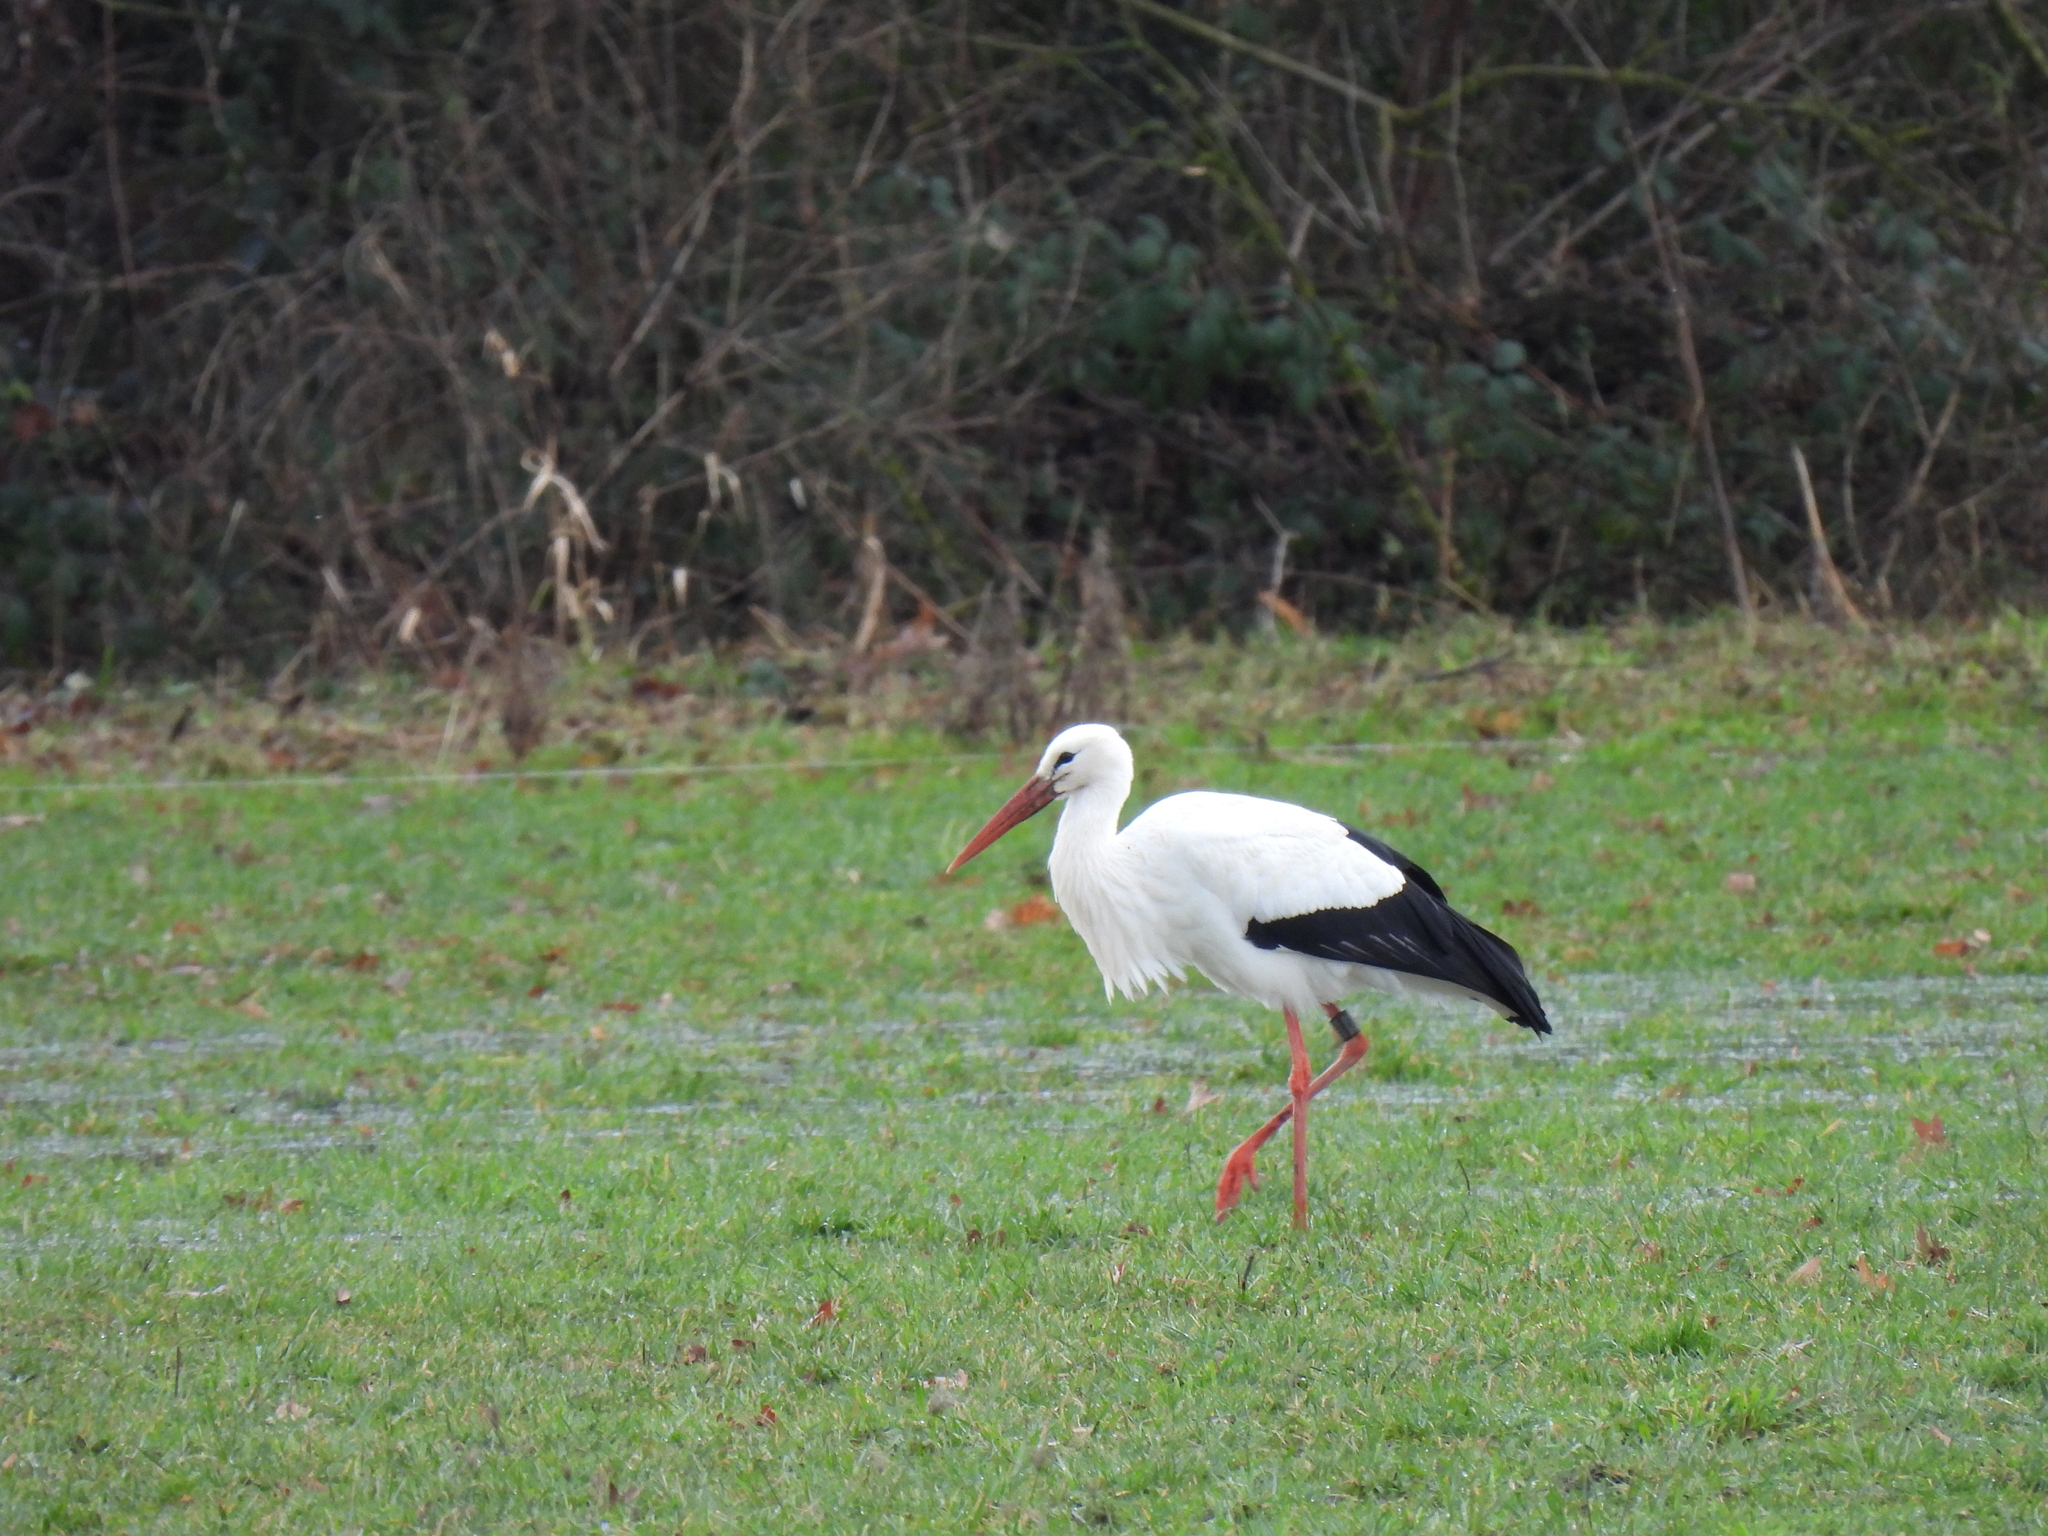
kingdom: Animalia
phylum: Chordata
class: Aves
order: Ciconiiformes
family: Ciconiidae
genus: Ciconia
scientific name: Ciconia ciconia
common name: White stork
